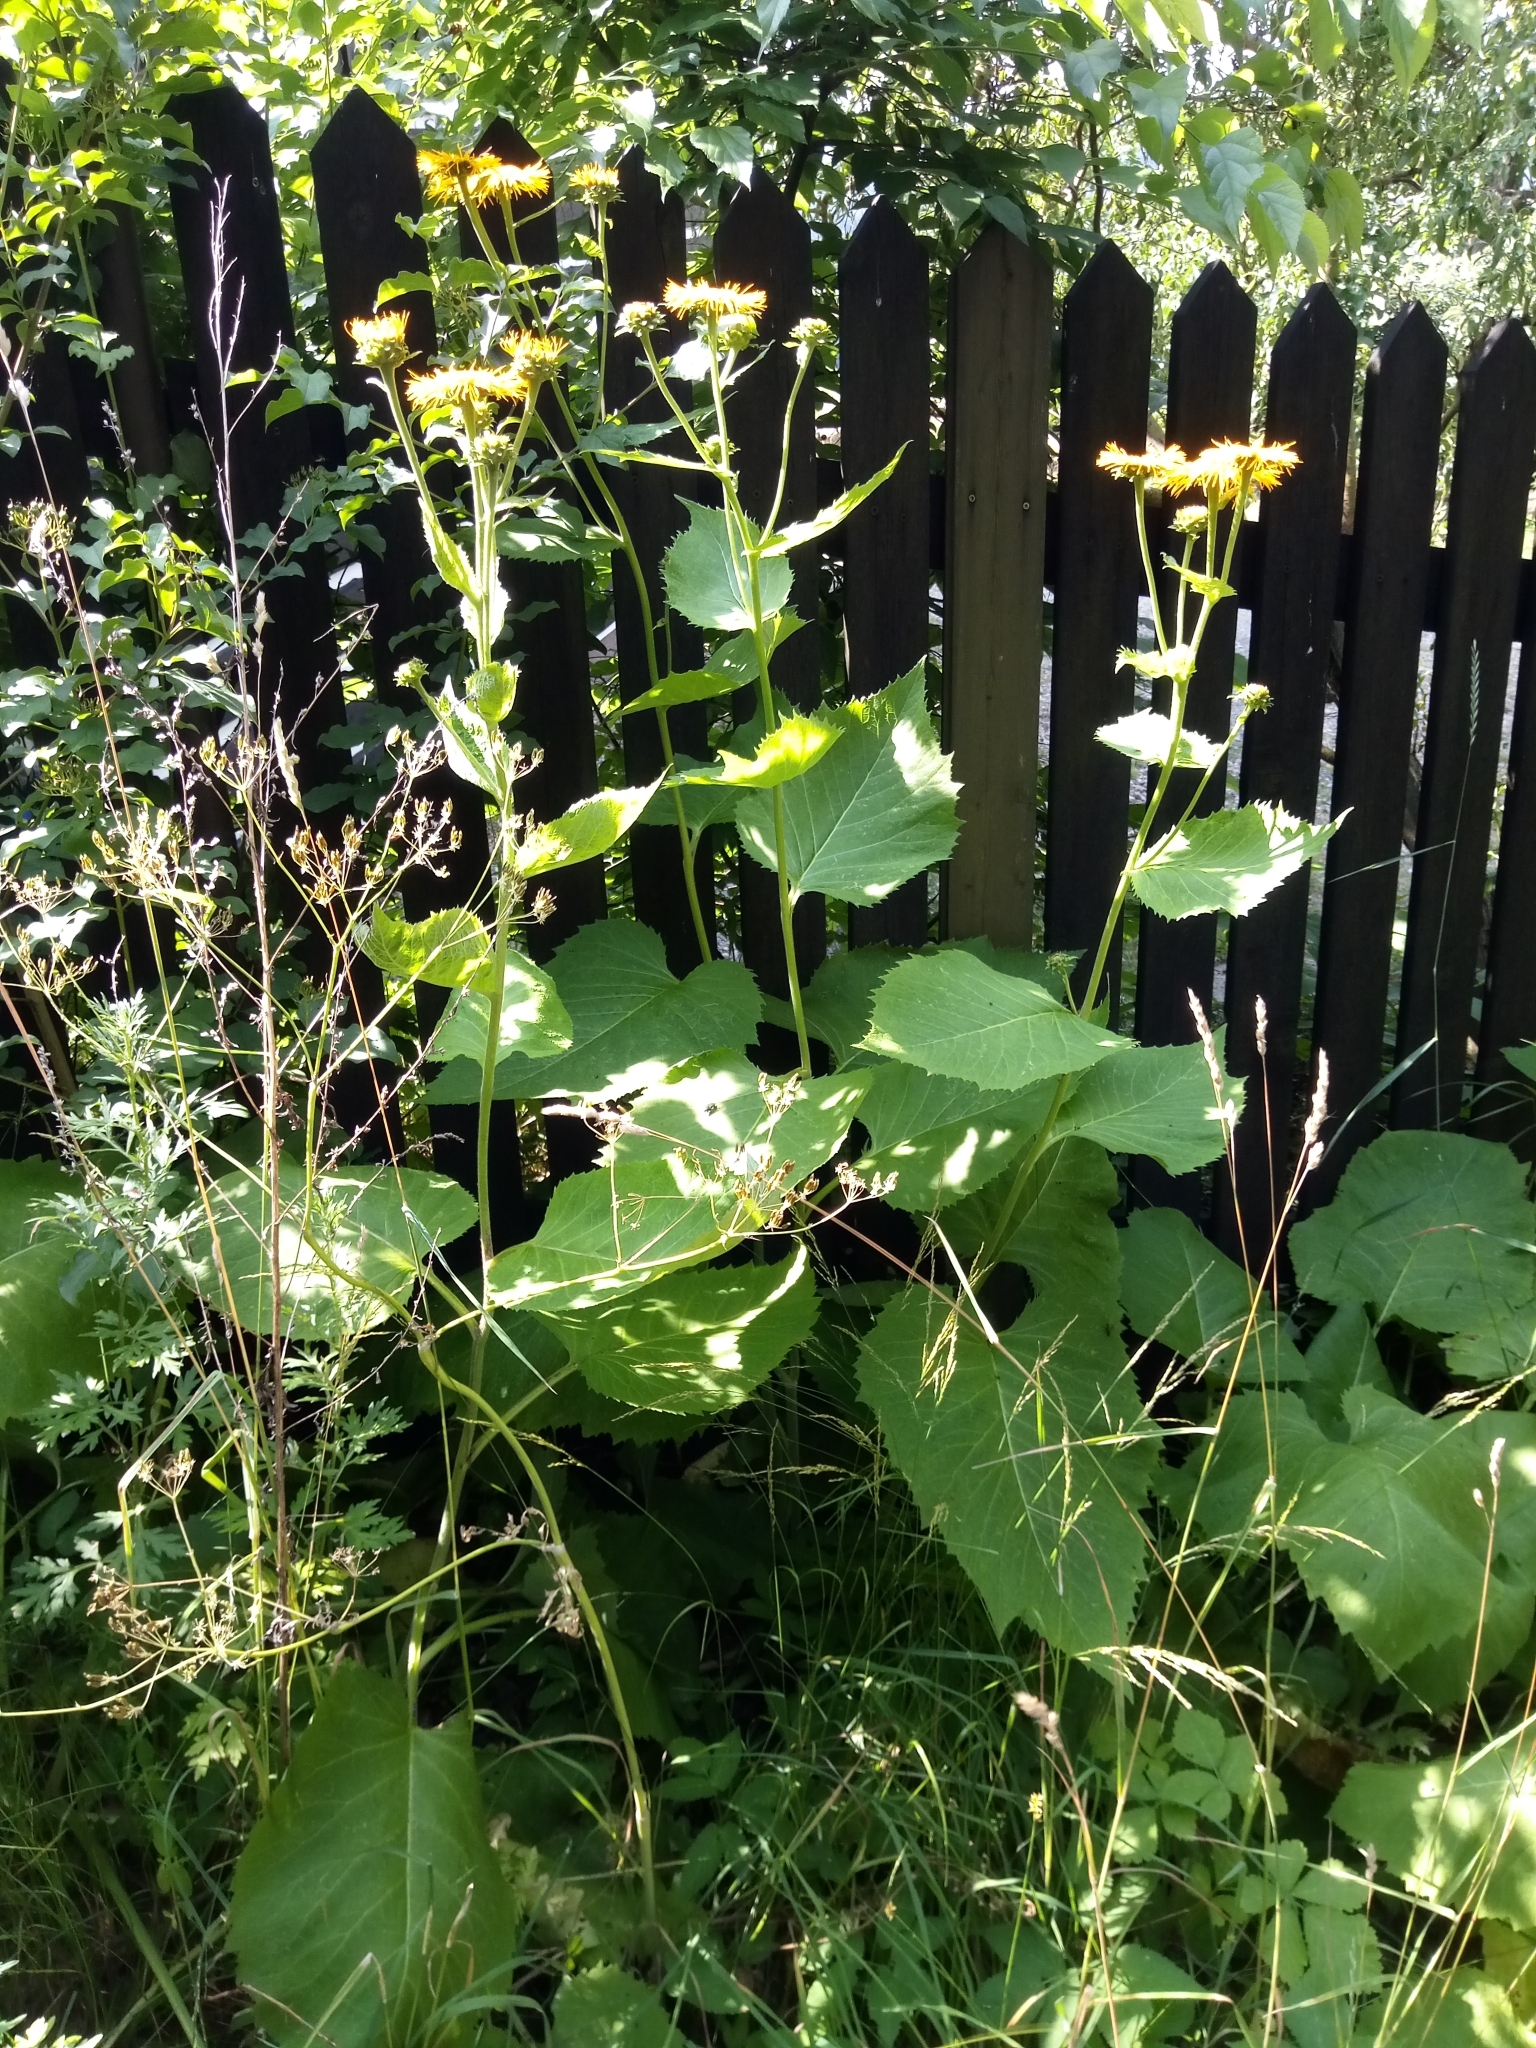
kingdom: Plantae
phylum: Tracheophyta
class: Magnoliopsida
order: Asterales
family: Asteraceae
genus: Telekia
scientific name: Telekia speciosa
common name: Yellow oxeye
